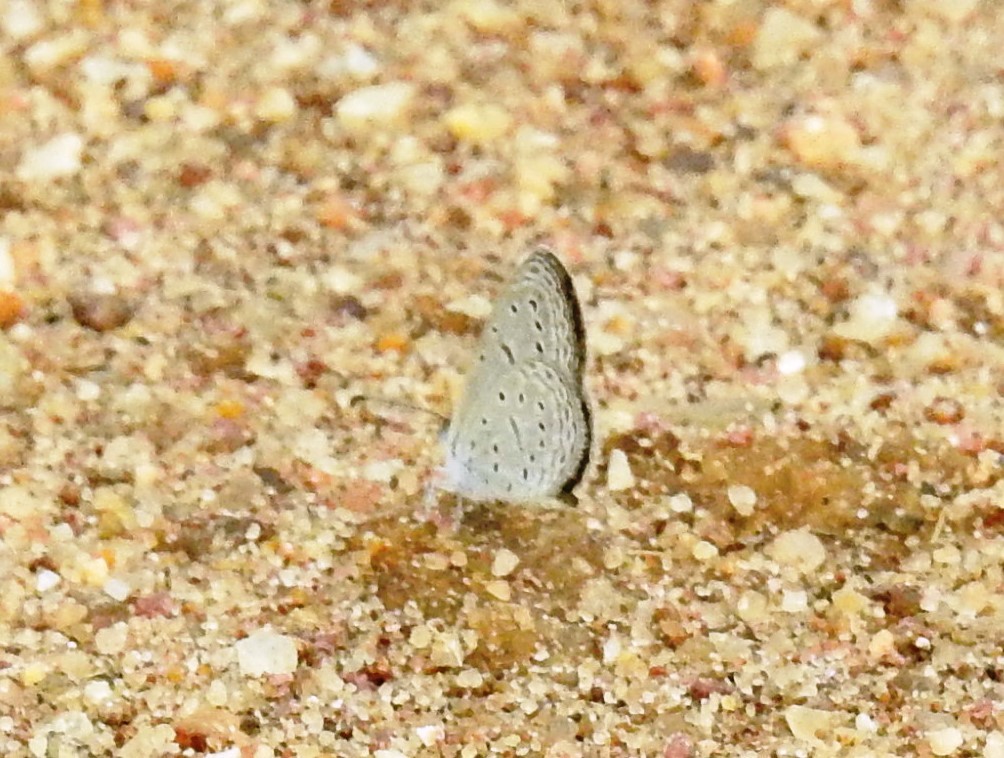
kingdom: Animalia
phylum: Arthropoda
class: Insecta
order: Lepidoptera
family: Lycaenidae
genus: Zizula
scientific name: Zizula hylax
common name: Gaika blue
